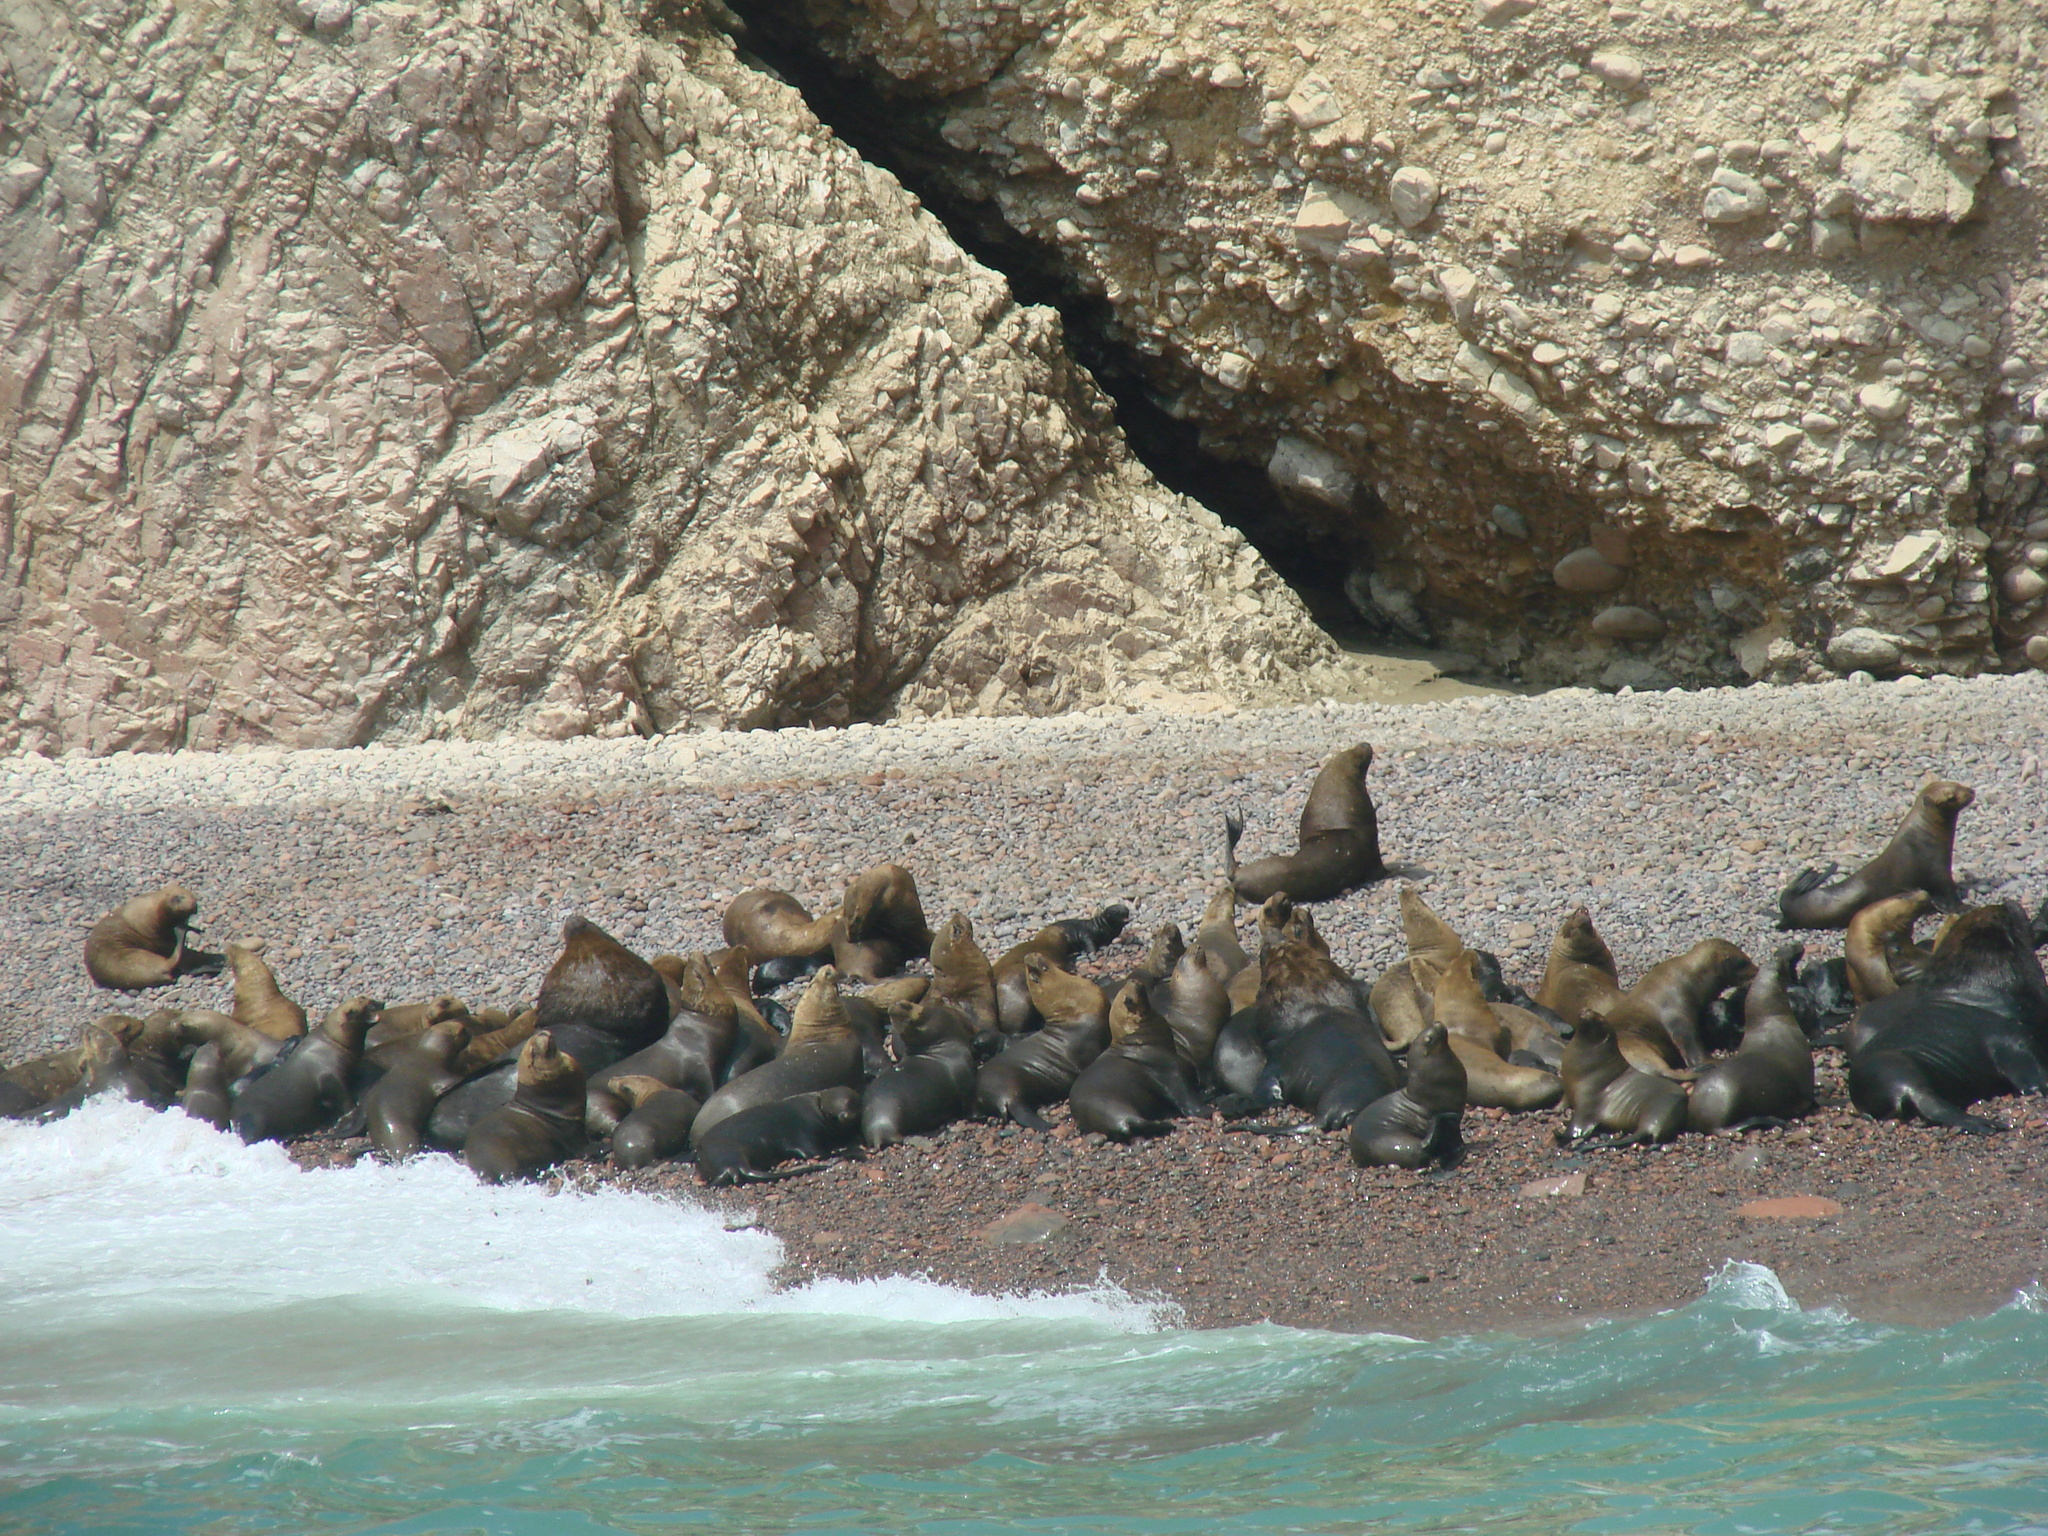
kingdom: Animalia
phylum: Chordata
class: Mammalia
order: Carnivora
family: Otariidae
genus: Otaria
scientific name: Otaria byronia
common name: South american sea lion
